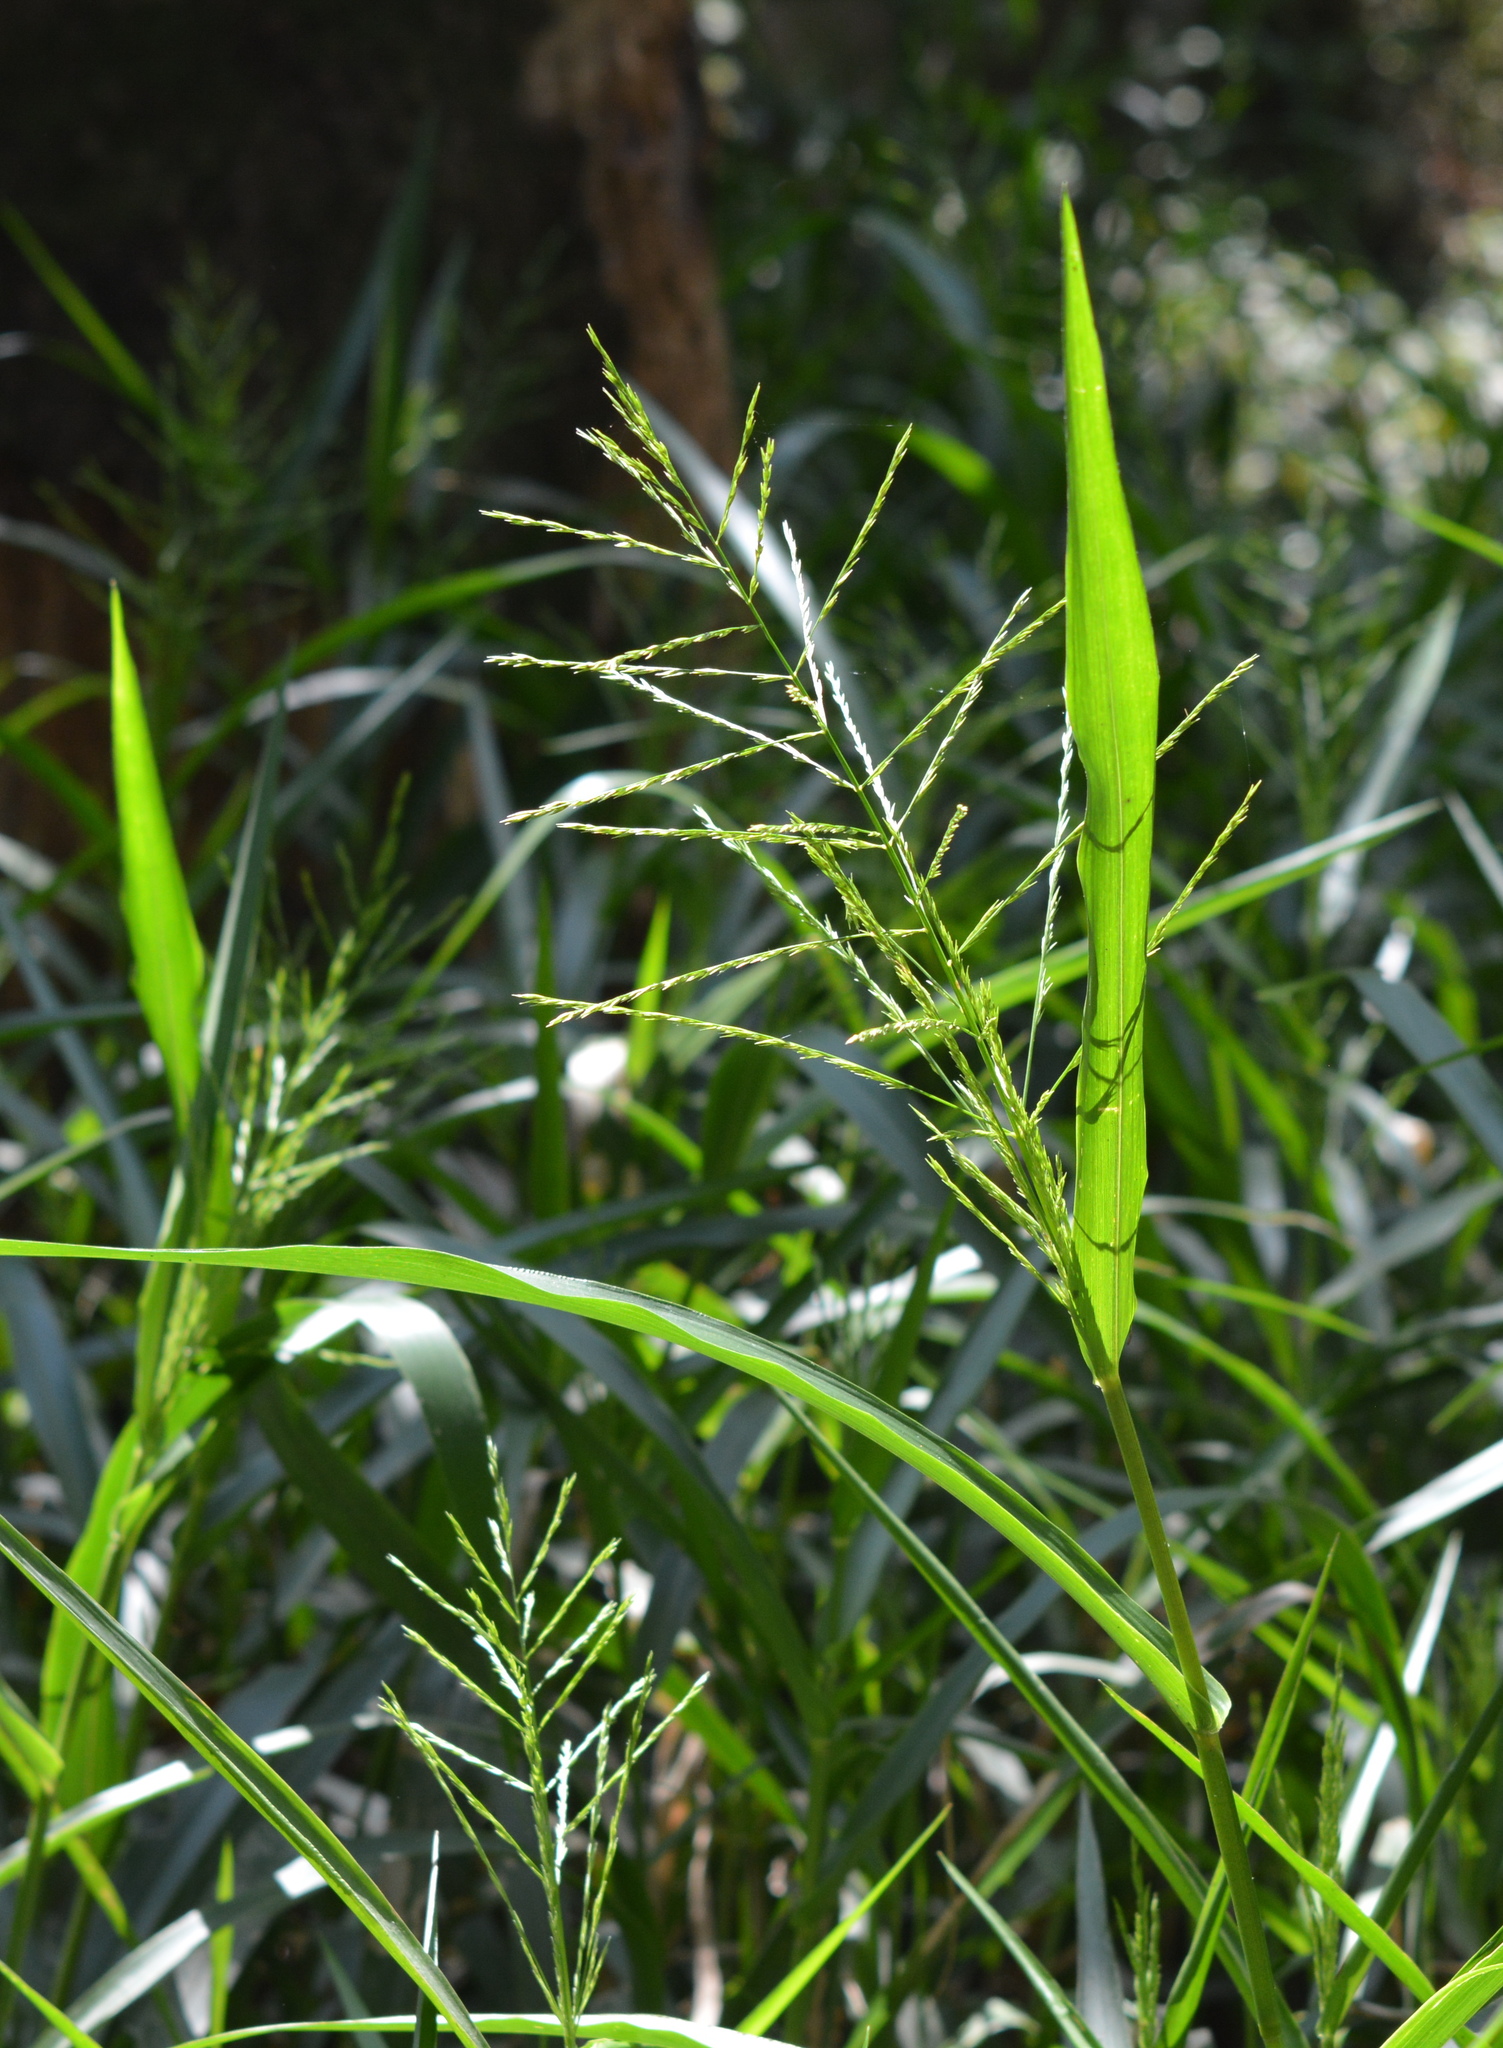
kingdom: Plantae
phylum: Tracheophyta
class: Liliopsida
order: Poales
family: Poaceae
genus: Panicum
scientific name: Panicum gymnocarpon
